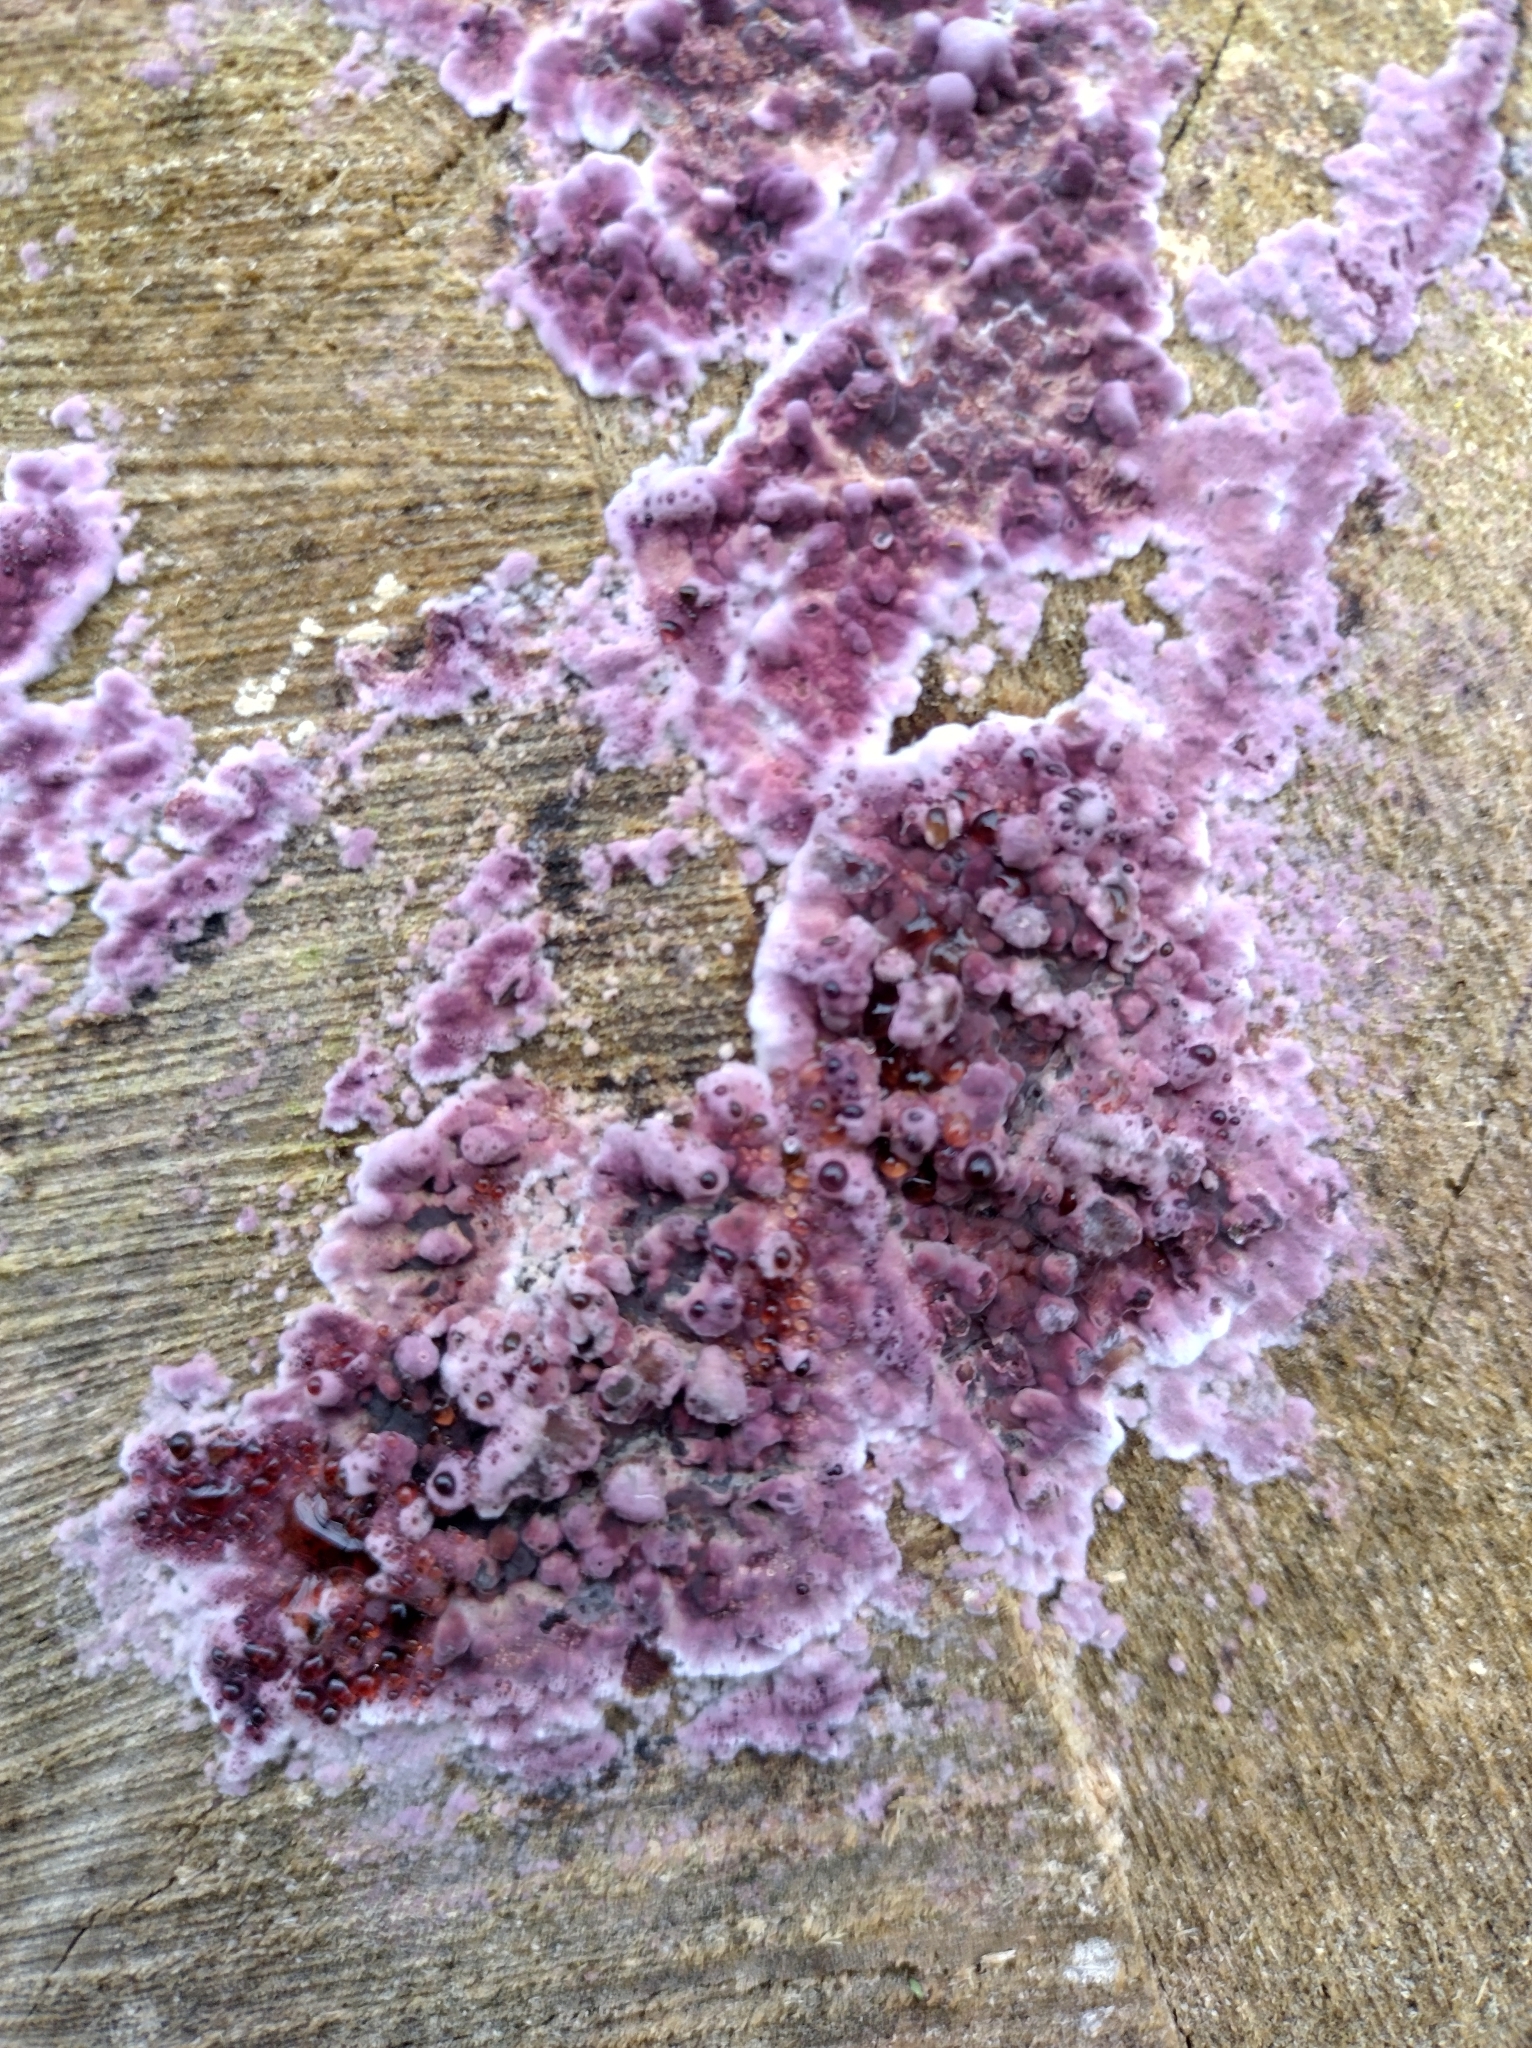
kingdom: Fungi
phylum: Basidiomycota
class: Agaricomycetes
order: Agaricales
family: Cyphellaceae
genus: Chondrostereum
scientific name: Chondrostereum purpureum
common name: Silver leaf disease
